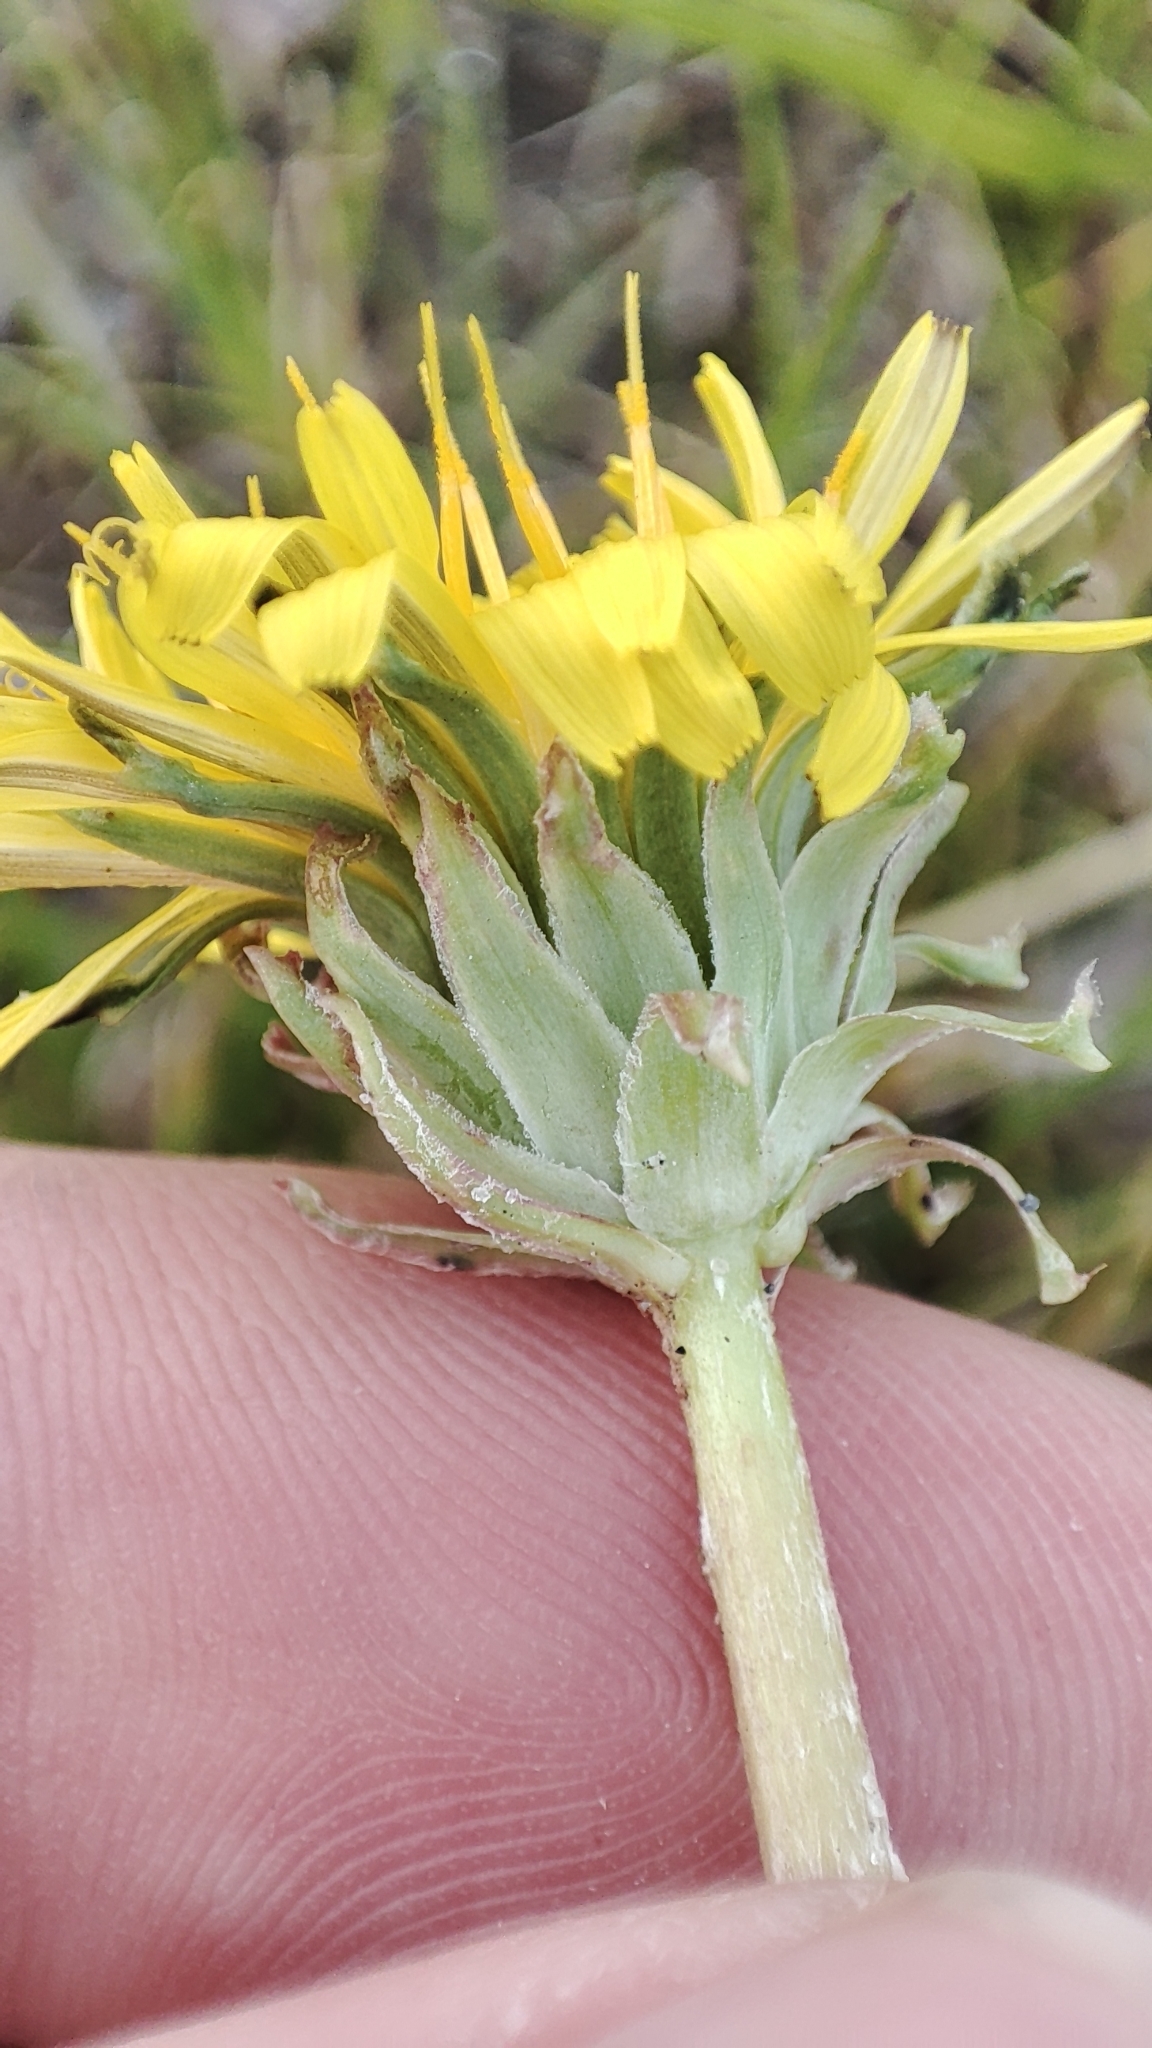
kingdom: Plantae
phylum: Tracheophyta
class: Magnoliopsida
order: Asterales
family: Asteraceae
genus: Taraxacum
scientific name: Taraxacum scariosum
